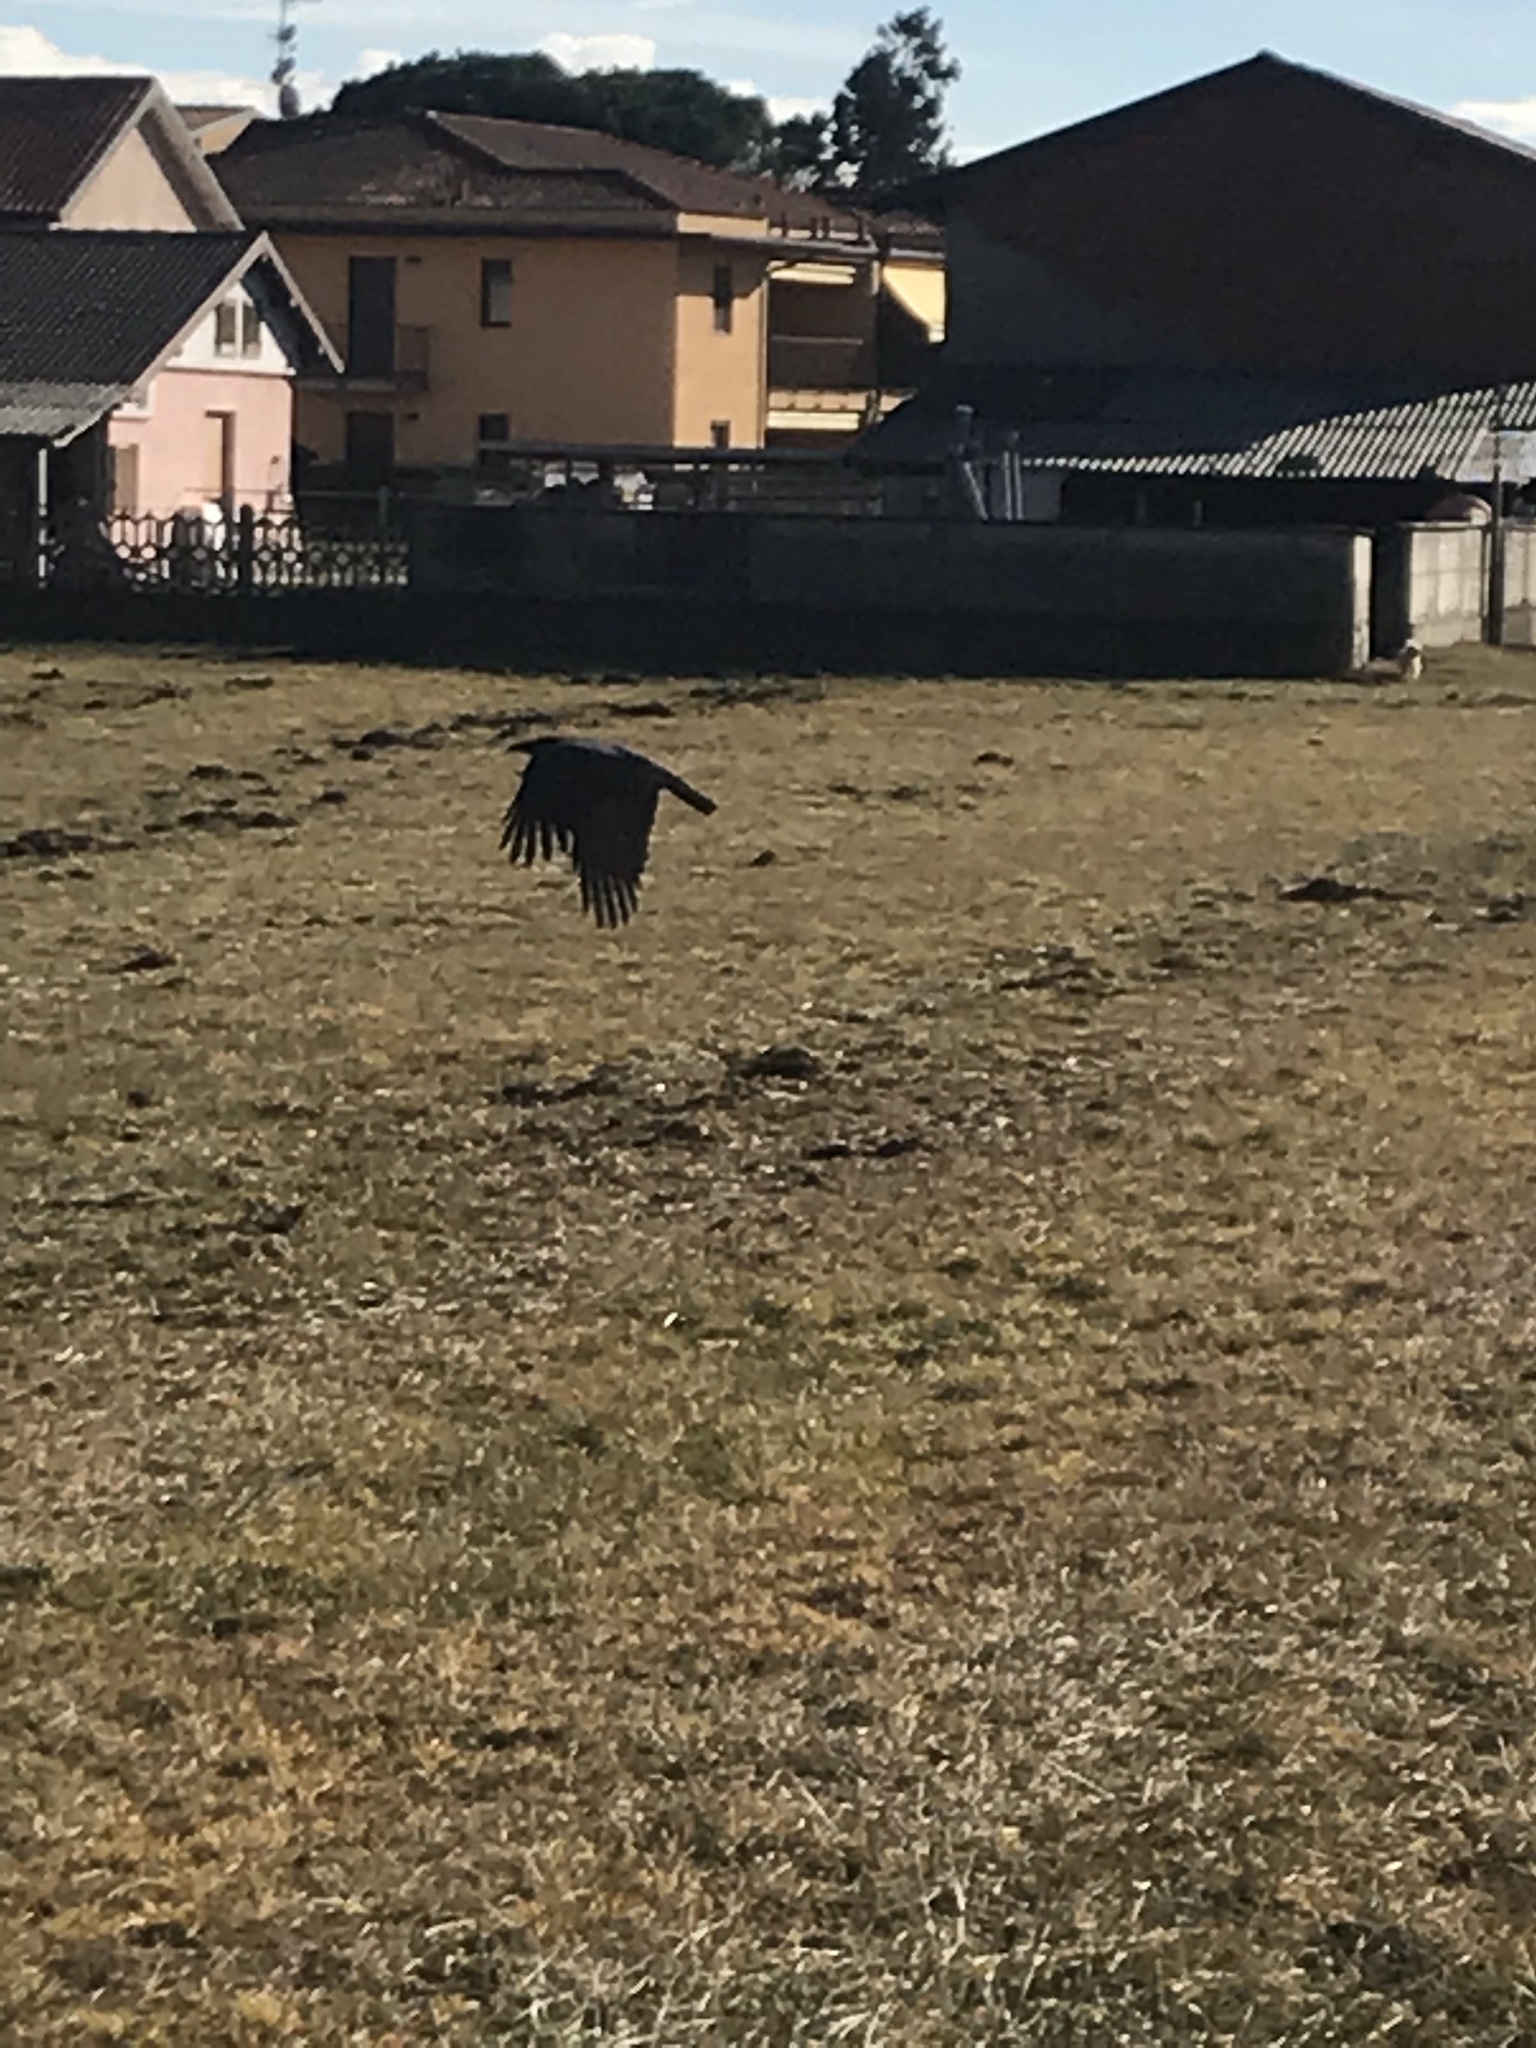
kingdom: Animalia
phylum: Chordata
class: Aves
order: Passeriformes
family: Corvidae
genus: Corvus
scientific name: Corvus cornix
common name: Hooded crow
